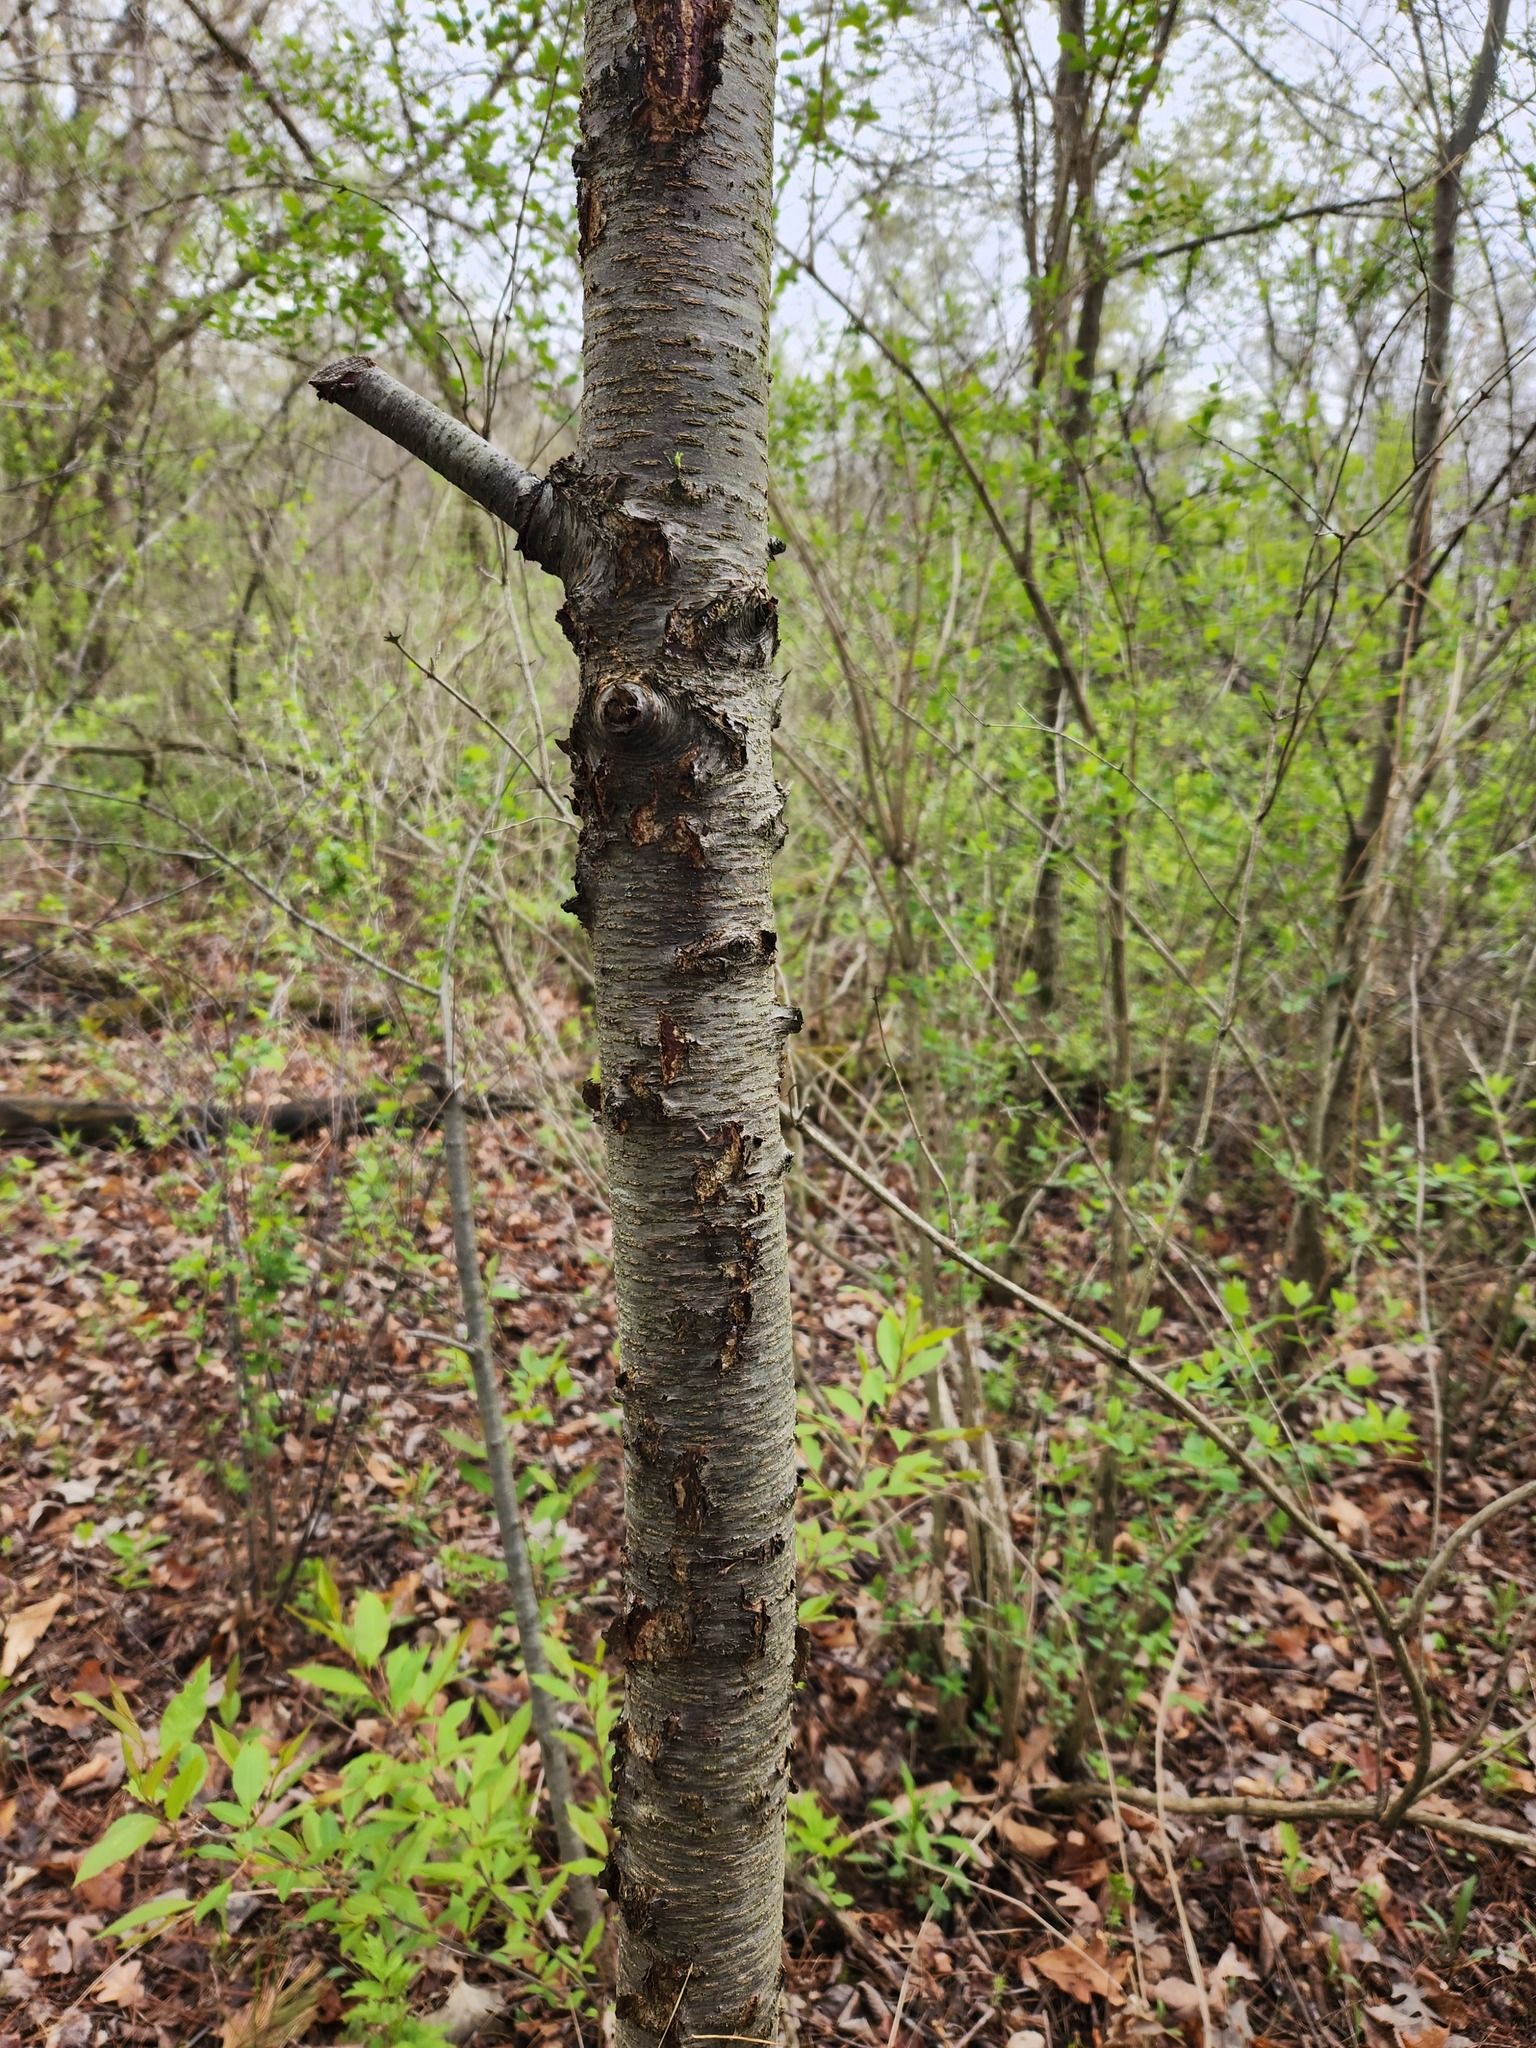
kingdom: Plantae
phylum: Tracheophyta
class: Magnoliopsida
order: Rosales
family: Rhamnaceae
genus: Rhamnus
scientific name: Rhamnus cathartica
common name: Common buckthorn
